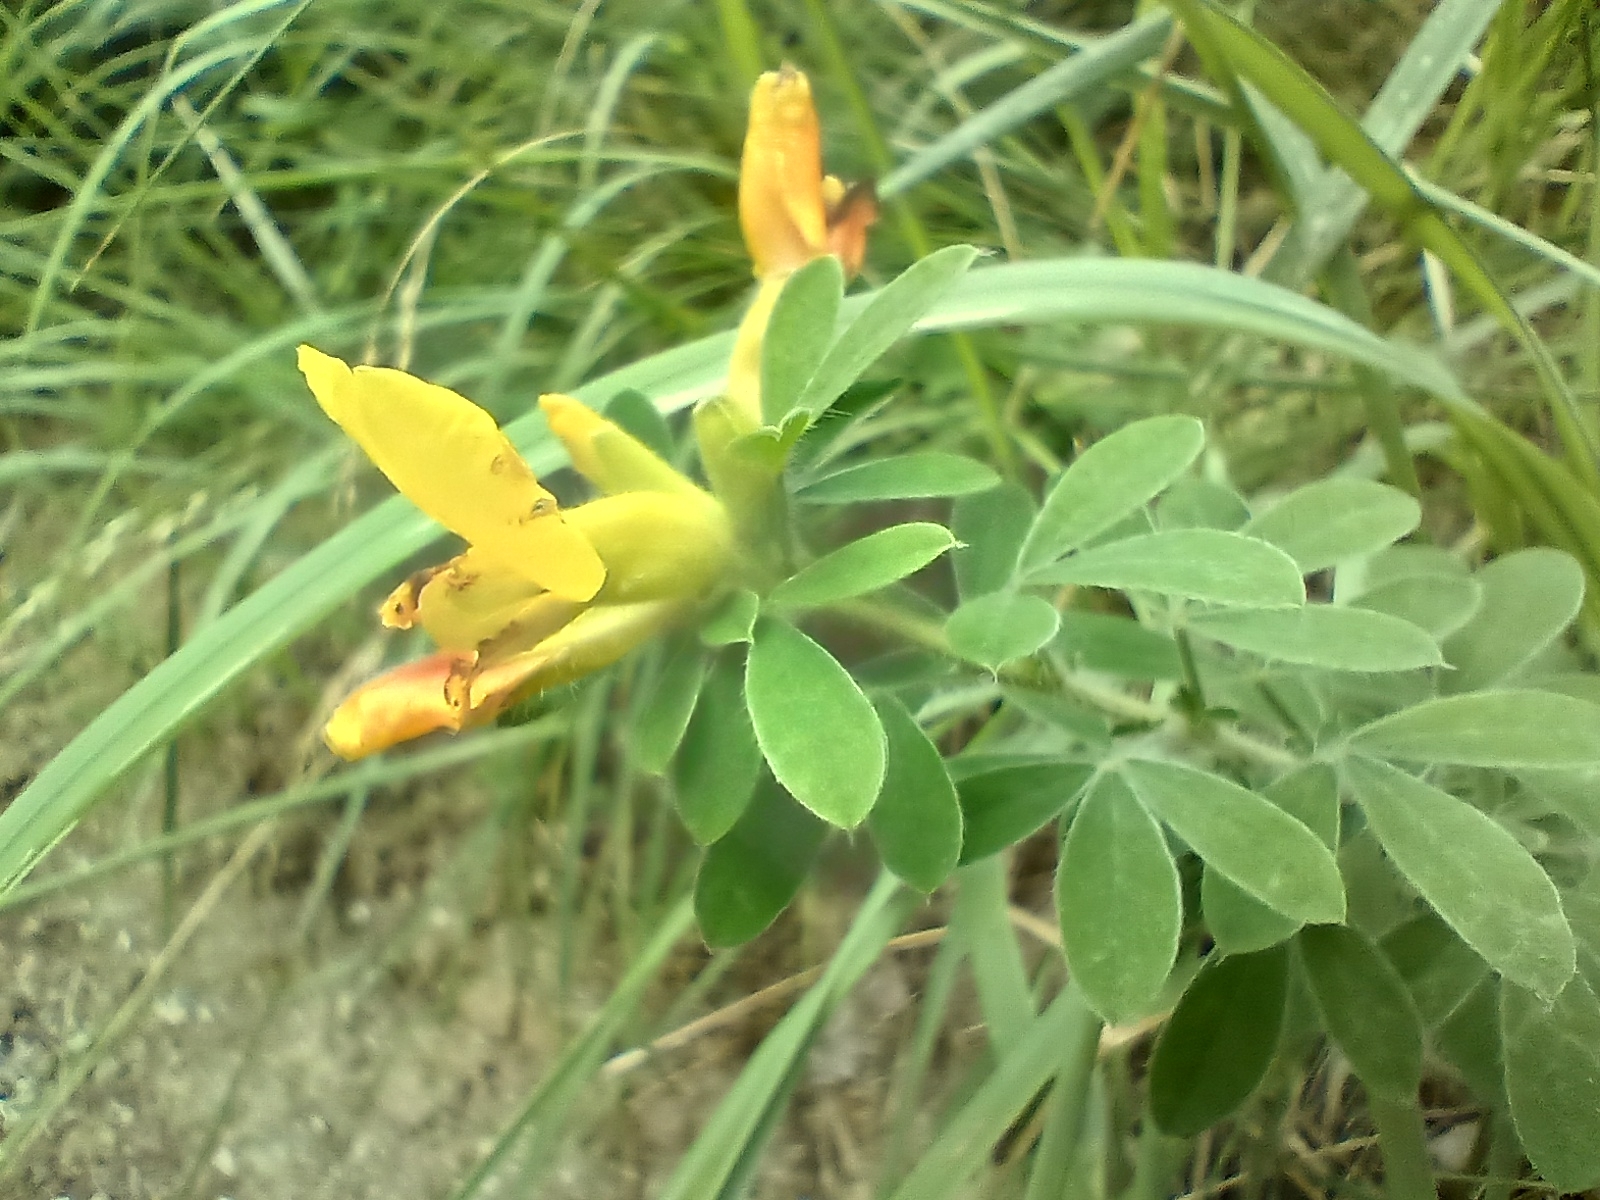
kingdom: Plantae
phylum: Tracheophyta
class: Magnoliopsida
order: Fabales
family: Fabaceae
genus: Chamaecytisus
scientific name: Chamaecytisus supinus
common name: Clustered broom
